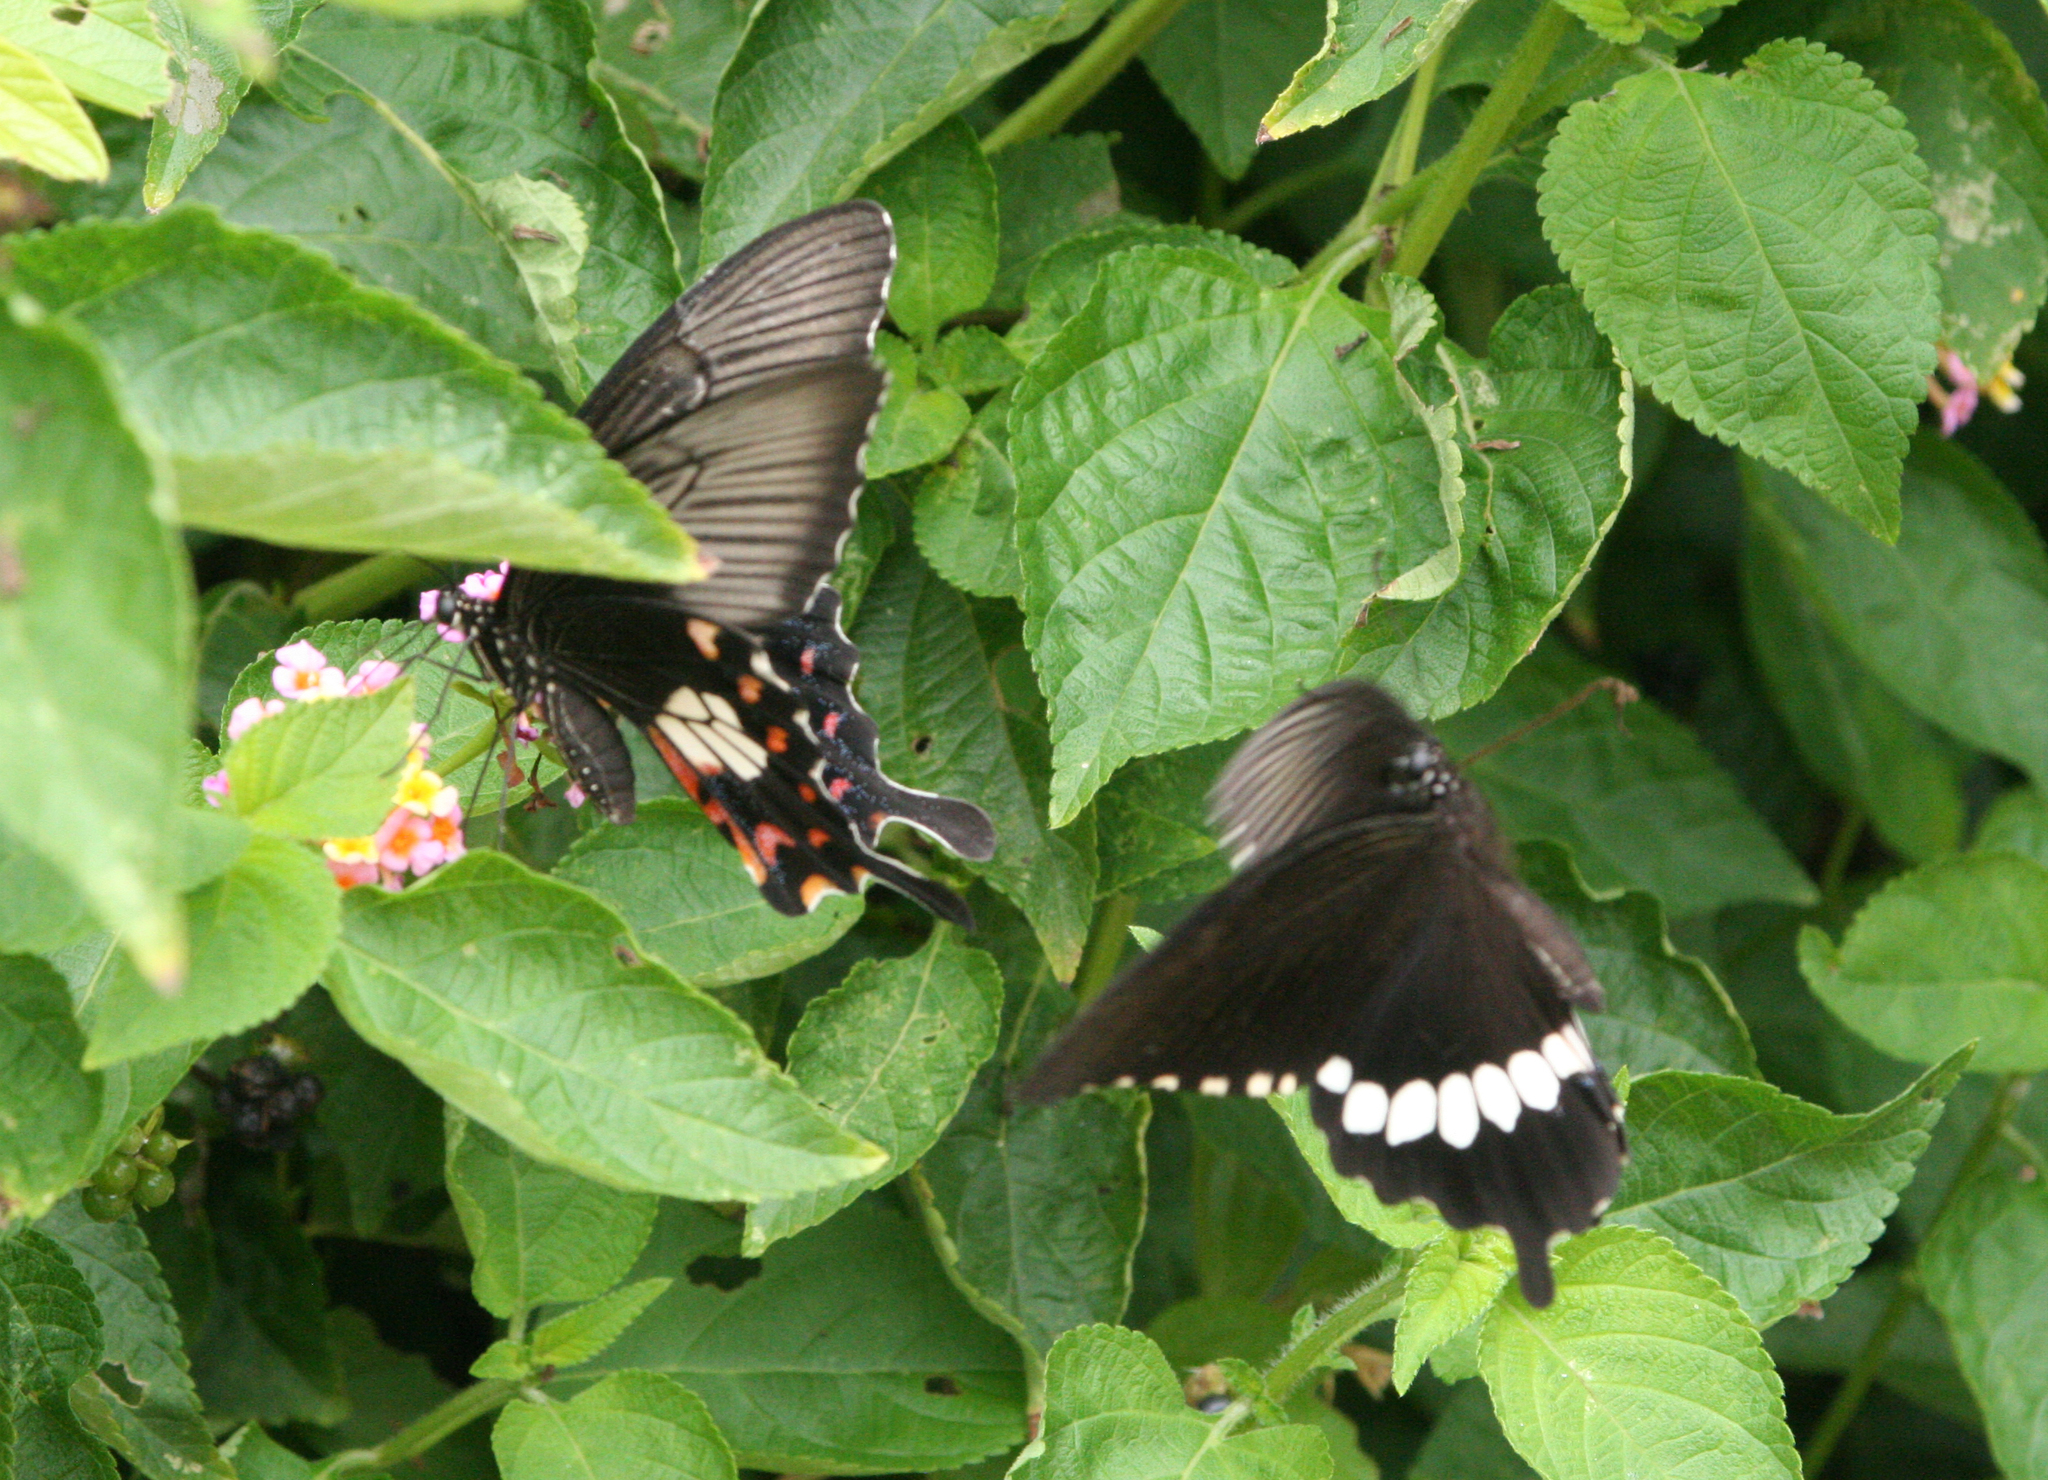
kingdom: Animalia
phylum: Arthropoda
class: Insecta
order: Lepidoptera
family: Papilionidae
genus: Papilio
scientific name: Papilio polytes
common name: Common mormon
